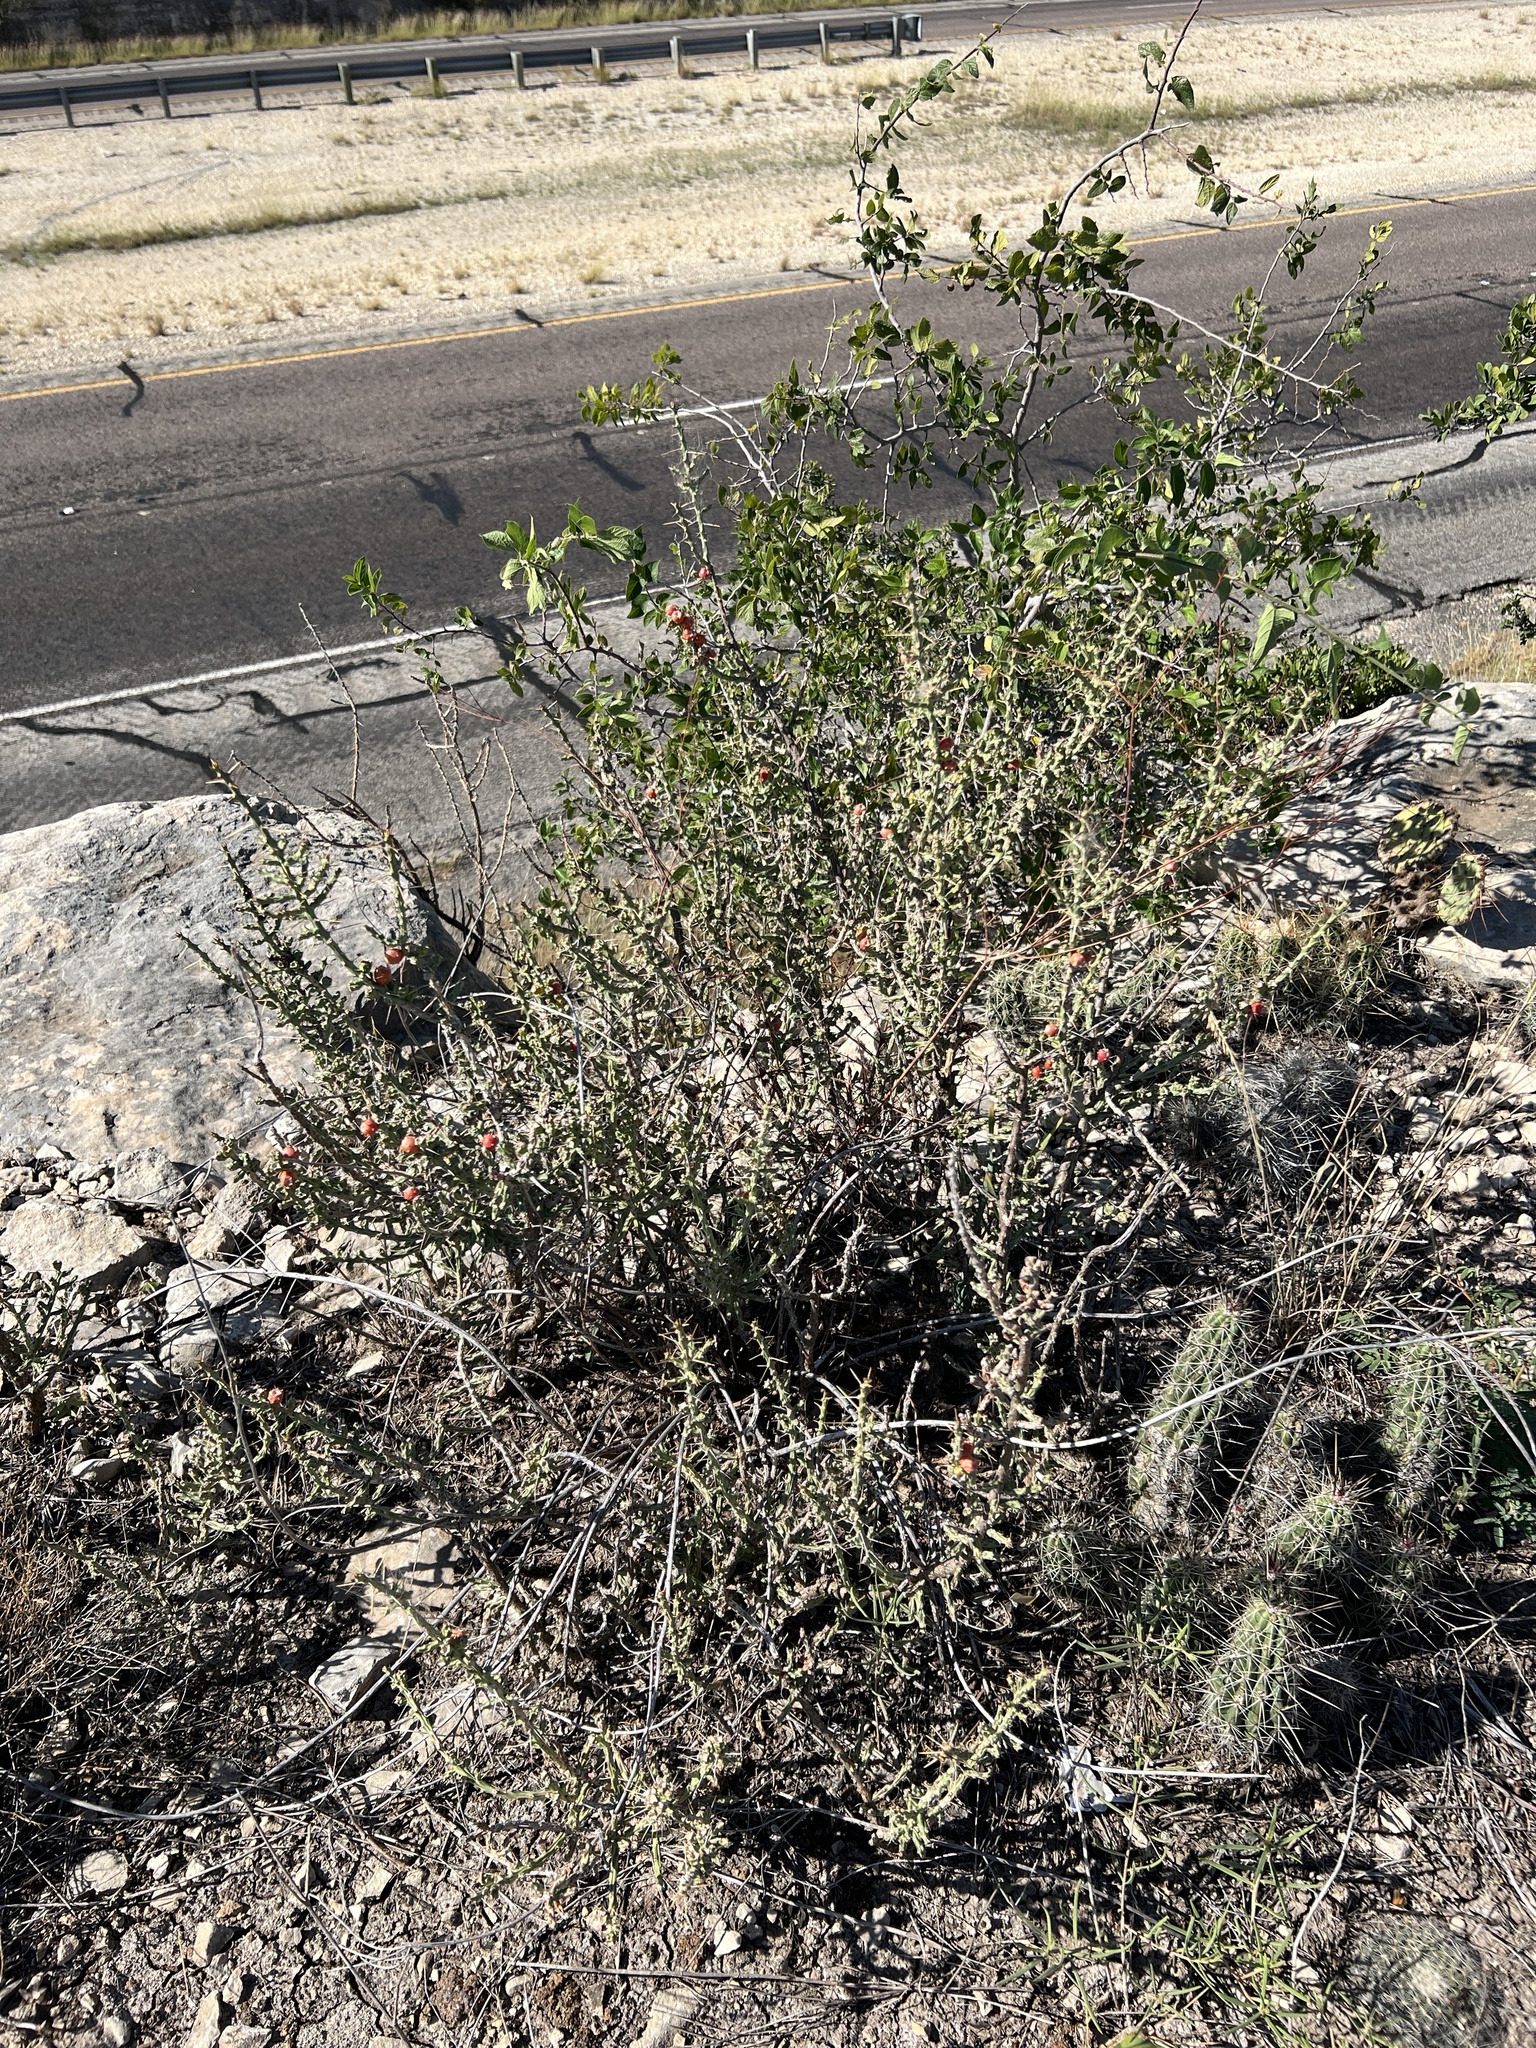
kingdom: Plantae
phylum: Tracheophyta
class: Magnoliopsida
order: Caryophyllales
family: Cactaceae
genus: Cylindropuntia
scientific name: Cylindropuntia leptocaulis
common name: Christmas cactus
